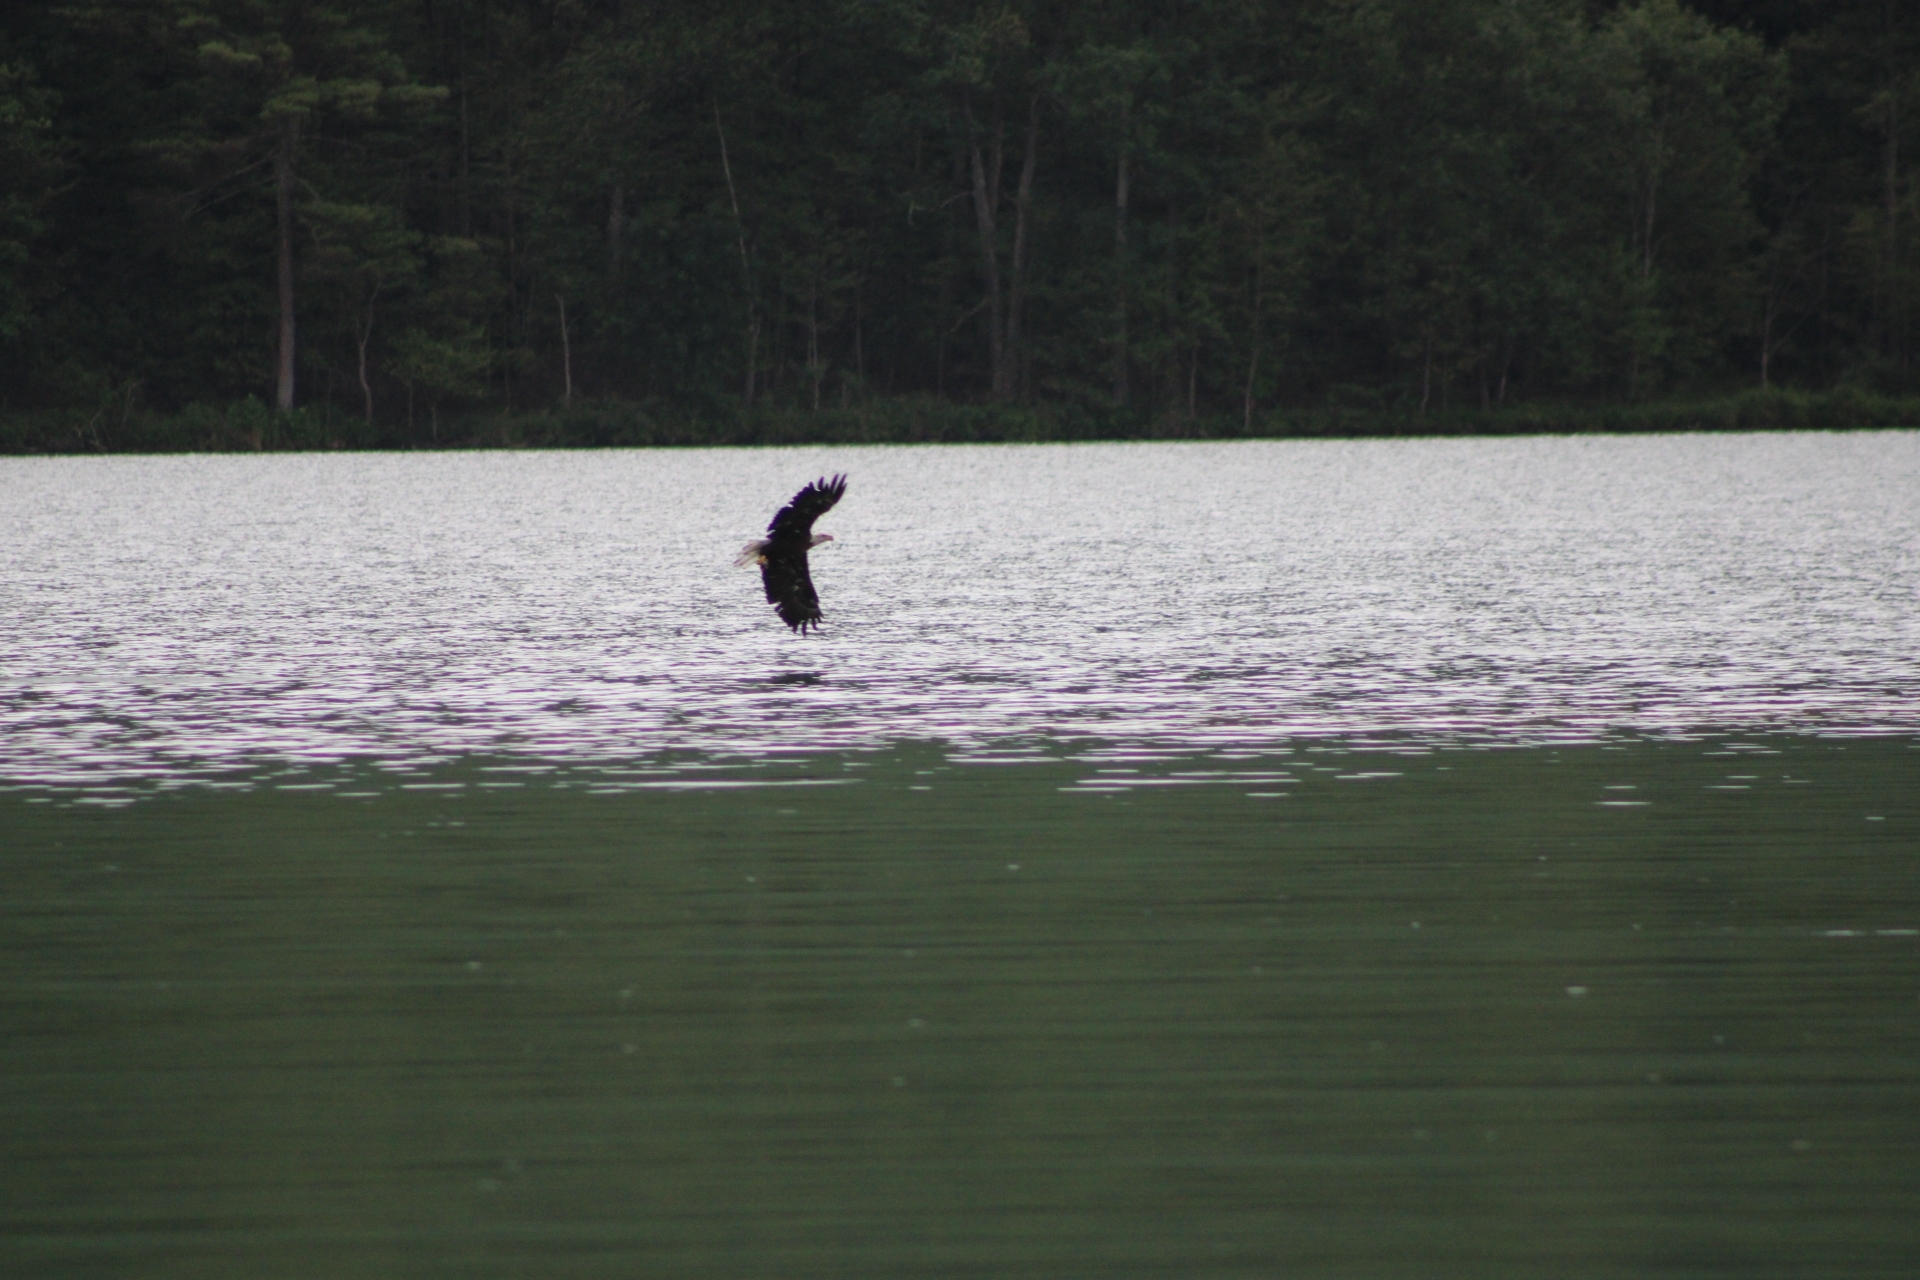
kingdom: Animalia
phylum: Chordata
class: Aves
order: Accipitriformes
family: Accipitridae
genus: Haliaeetus
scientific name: Haliaeetus leucocephalus
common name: Bald eagle
